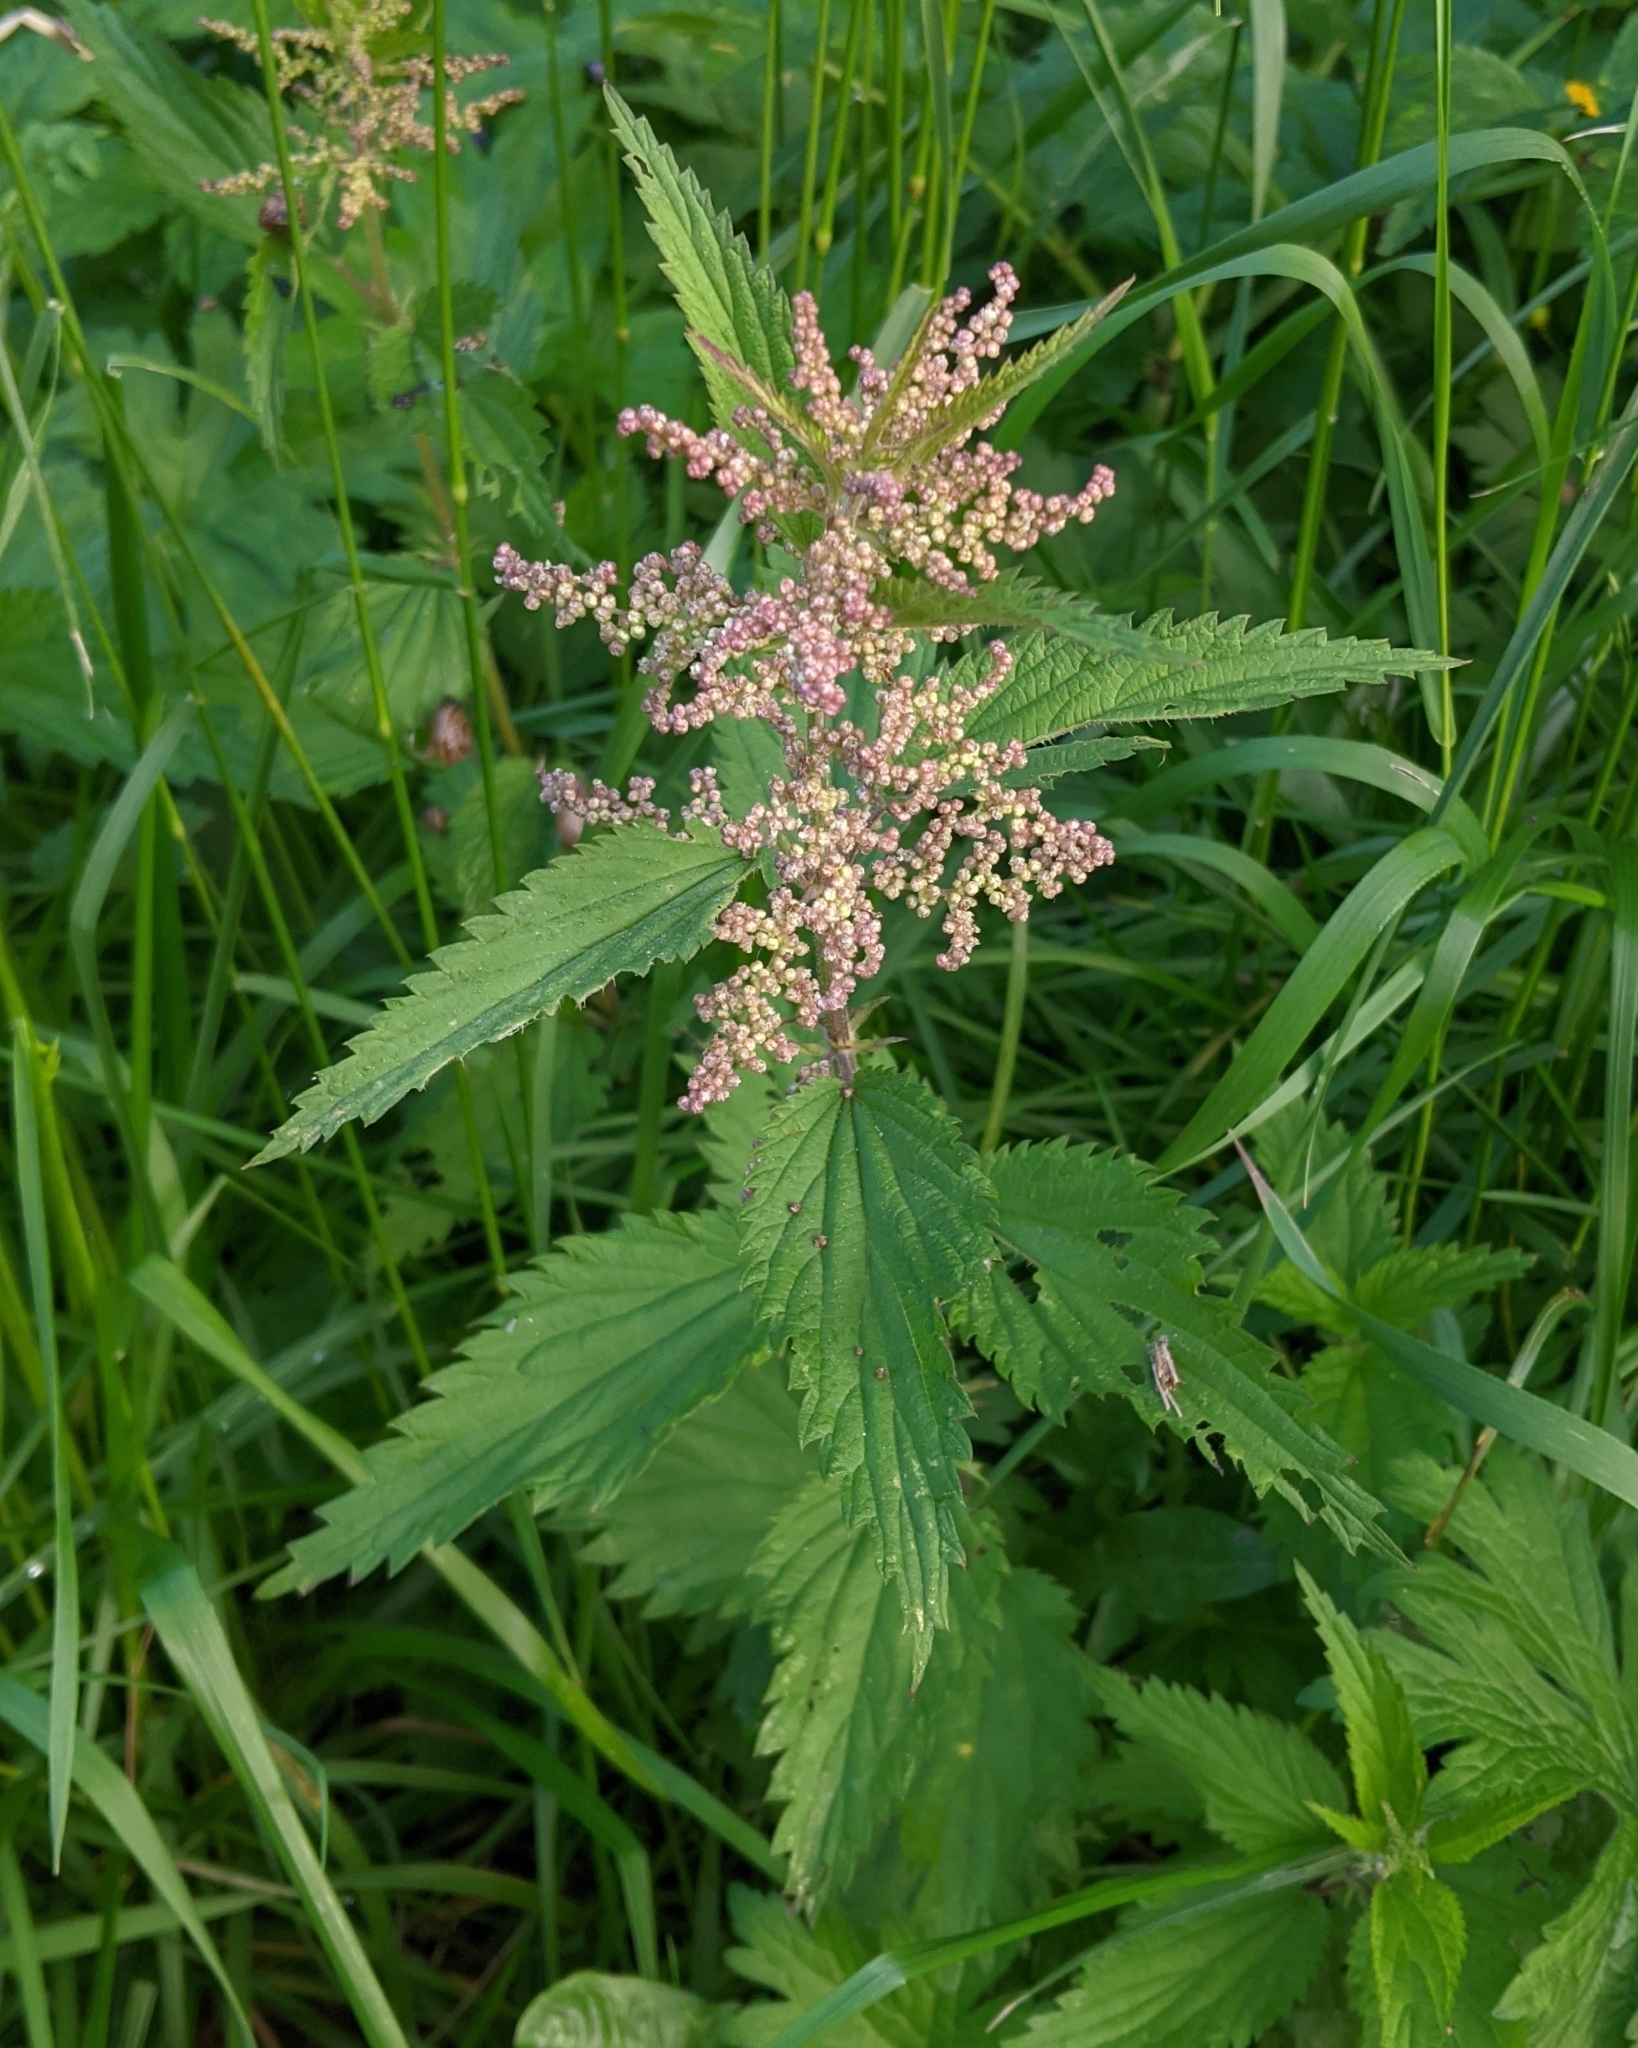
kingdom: Plantae
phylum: Tracheophyta
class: Magnoliopsida
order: Rosales
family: Urticaceae
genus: Urtica
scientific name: Urtica dioica
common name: Common nettle
